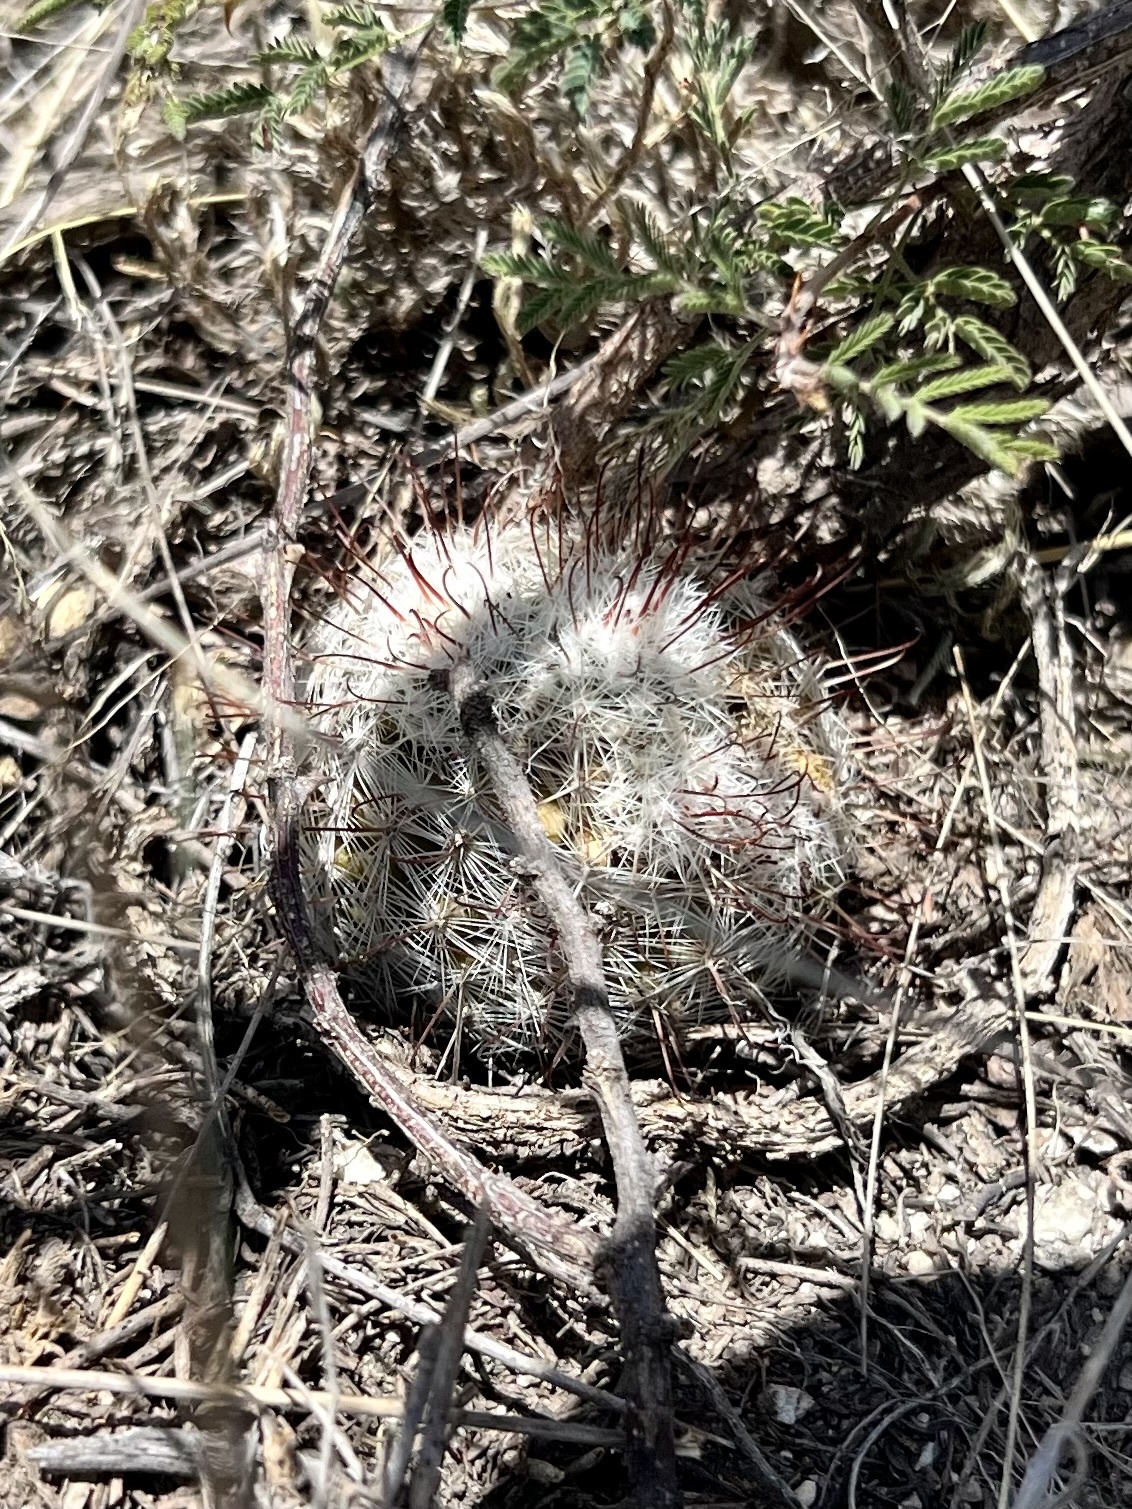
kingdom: Plantae
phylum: Tracheophyta
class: Magnoliopsida
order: Caryophyllales
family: Cactaceae
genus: Cochemiea
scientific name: Cochemiea grahamii
